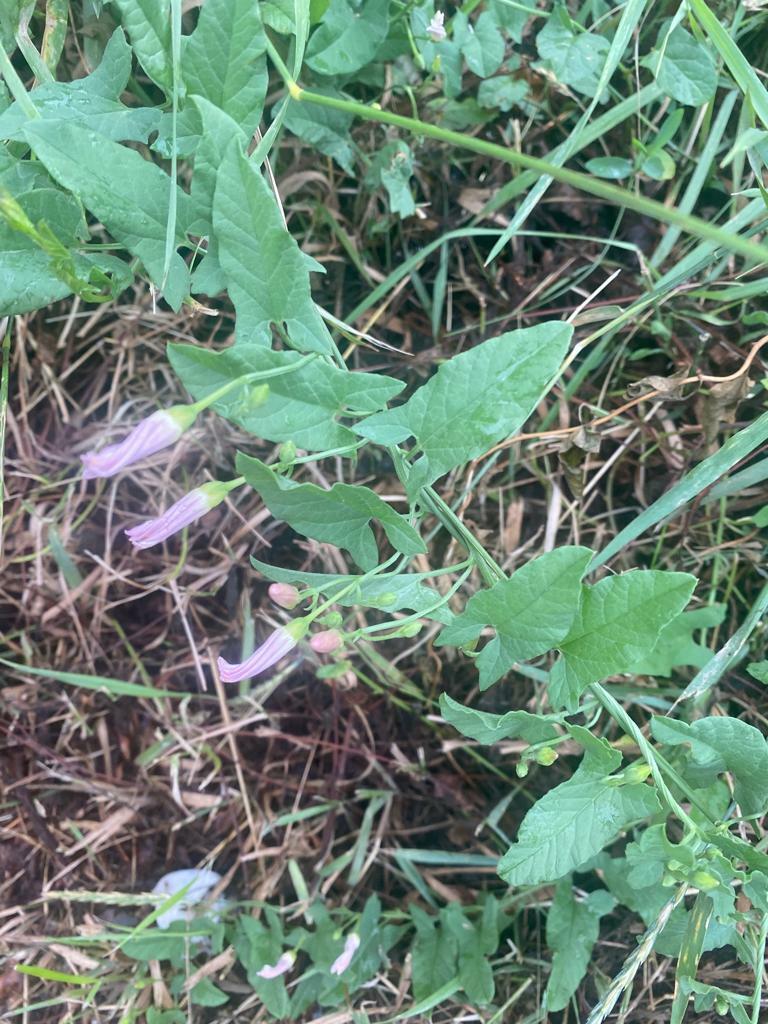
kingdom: Plantae
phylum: Tracheophyta
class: Magnoliopsida
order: Solanales
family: Convolvulaceae
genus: Convolvulus
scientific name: Convolvulus arvensis
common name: Field bindweed
